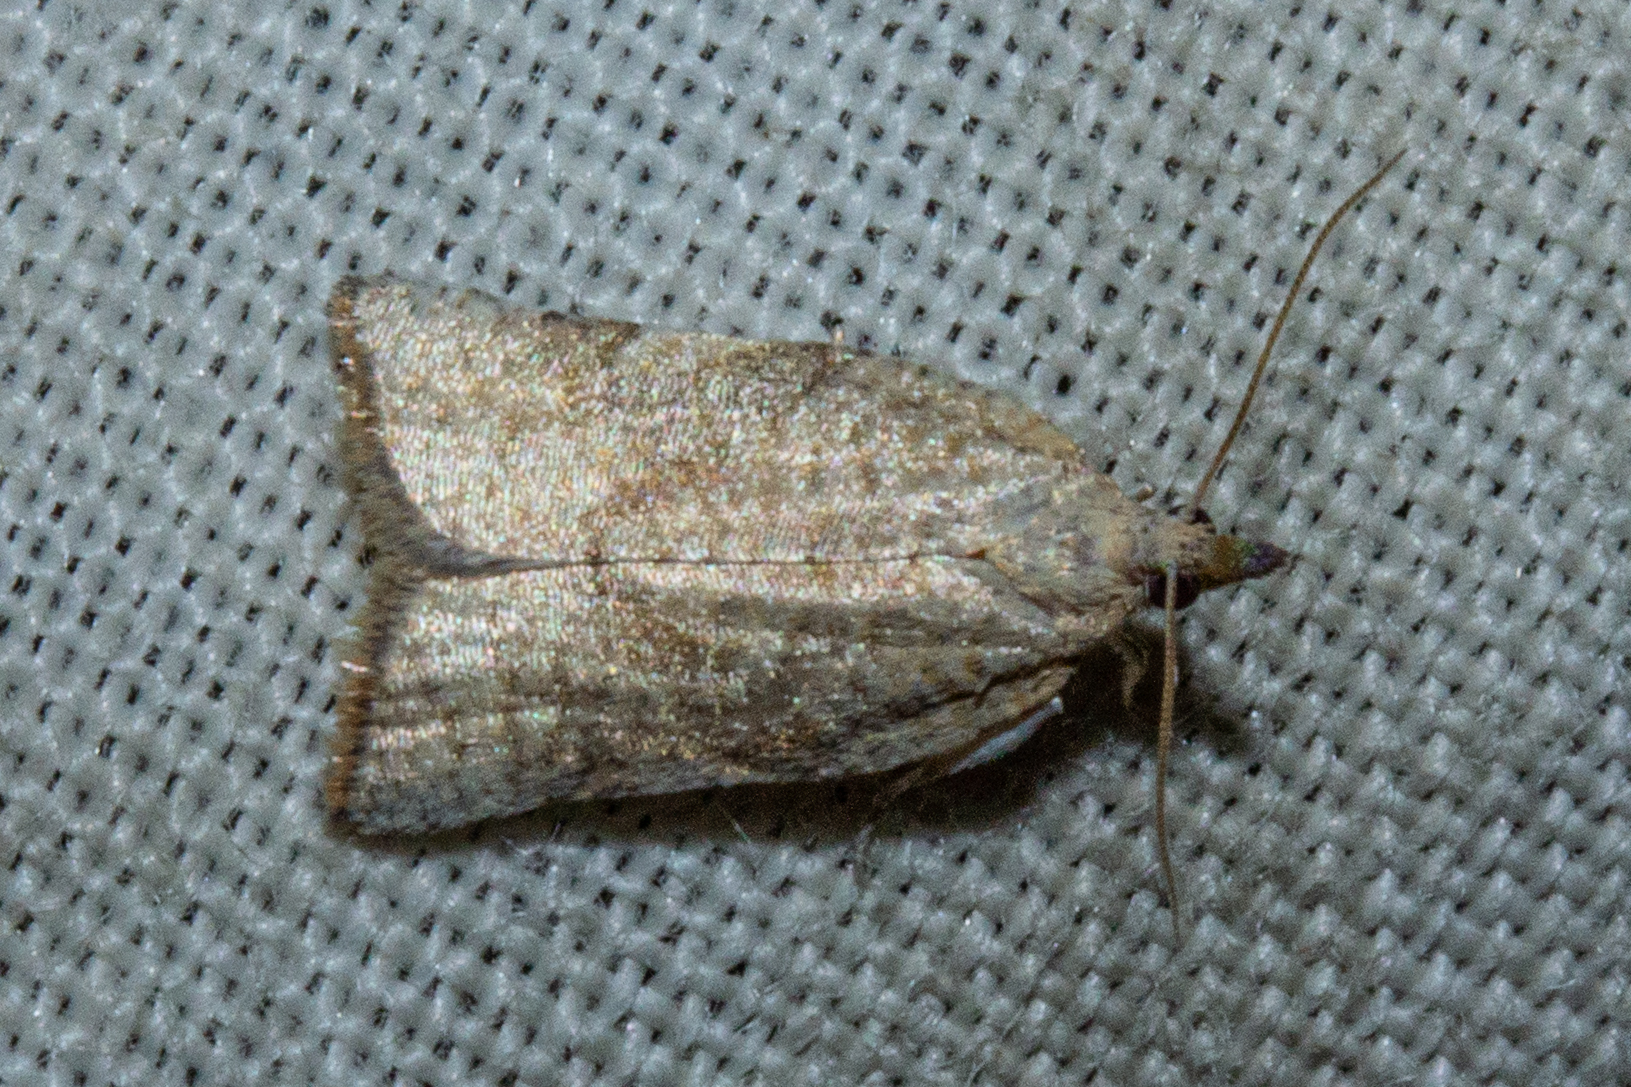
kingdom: Animalia
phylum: Arthropoda
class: Insecta
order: Lepidoptera
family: Tortricidae
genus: Catamacta
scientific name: Catamacta gavisana
